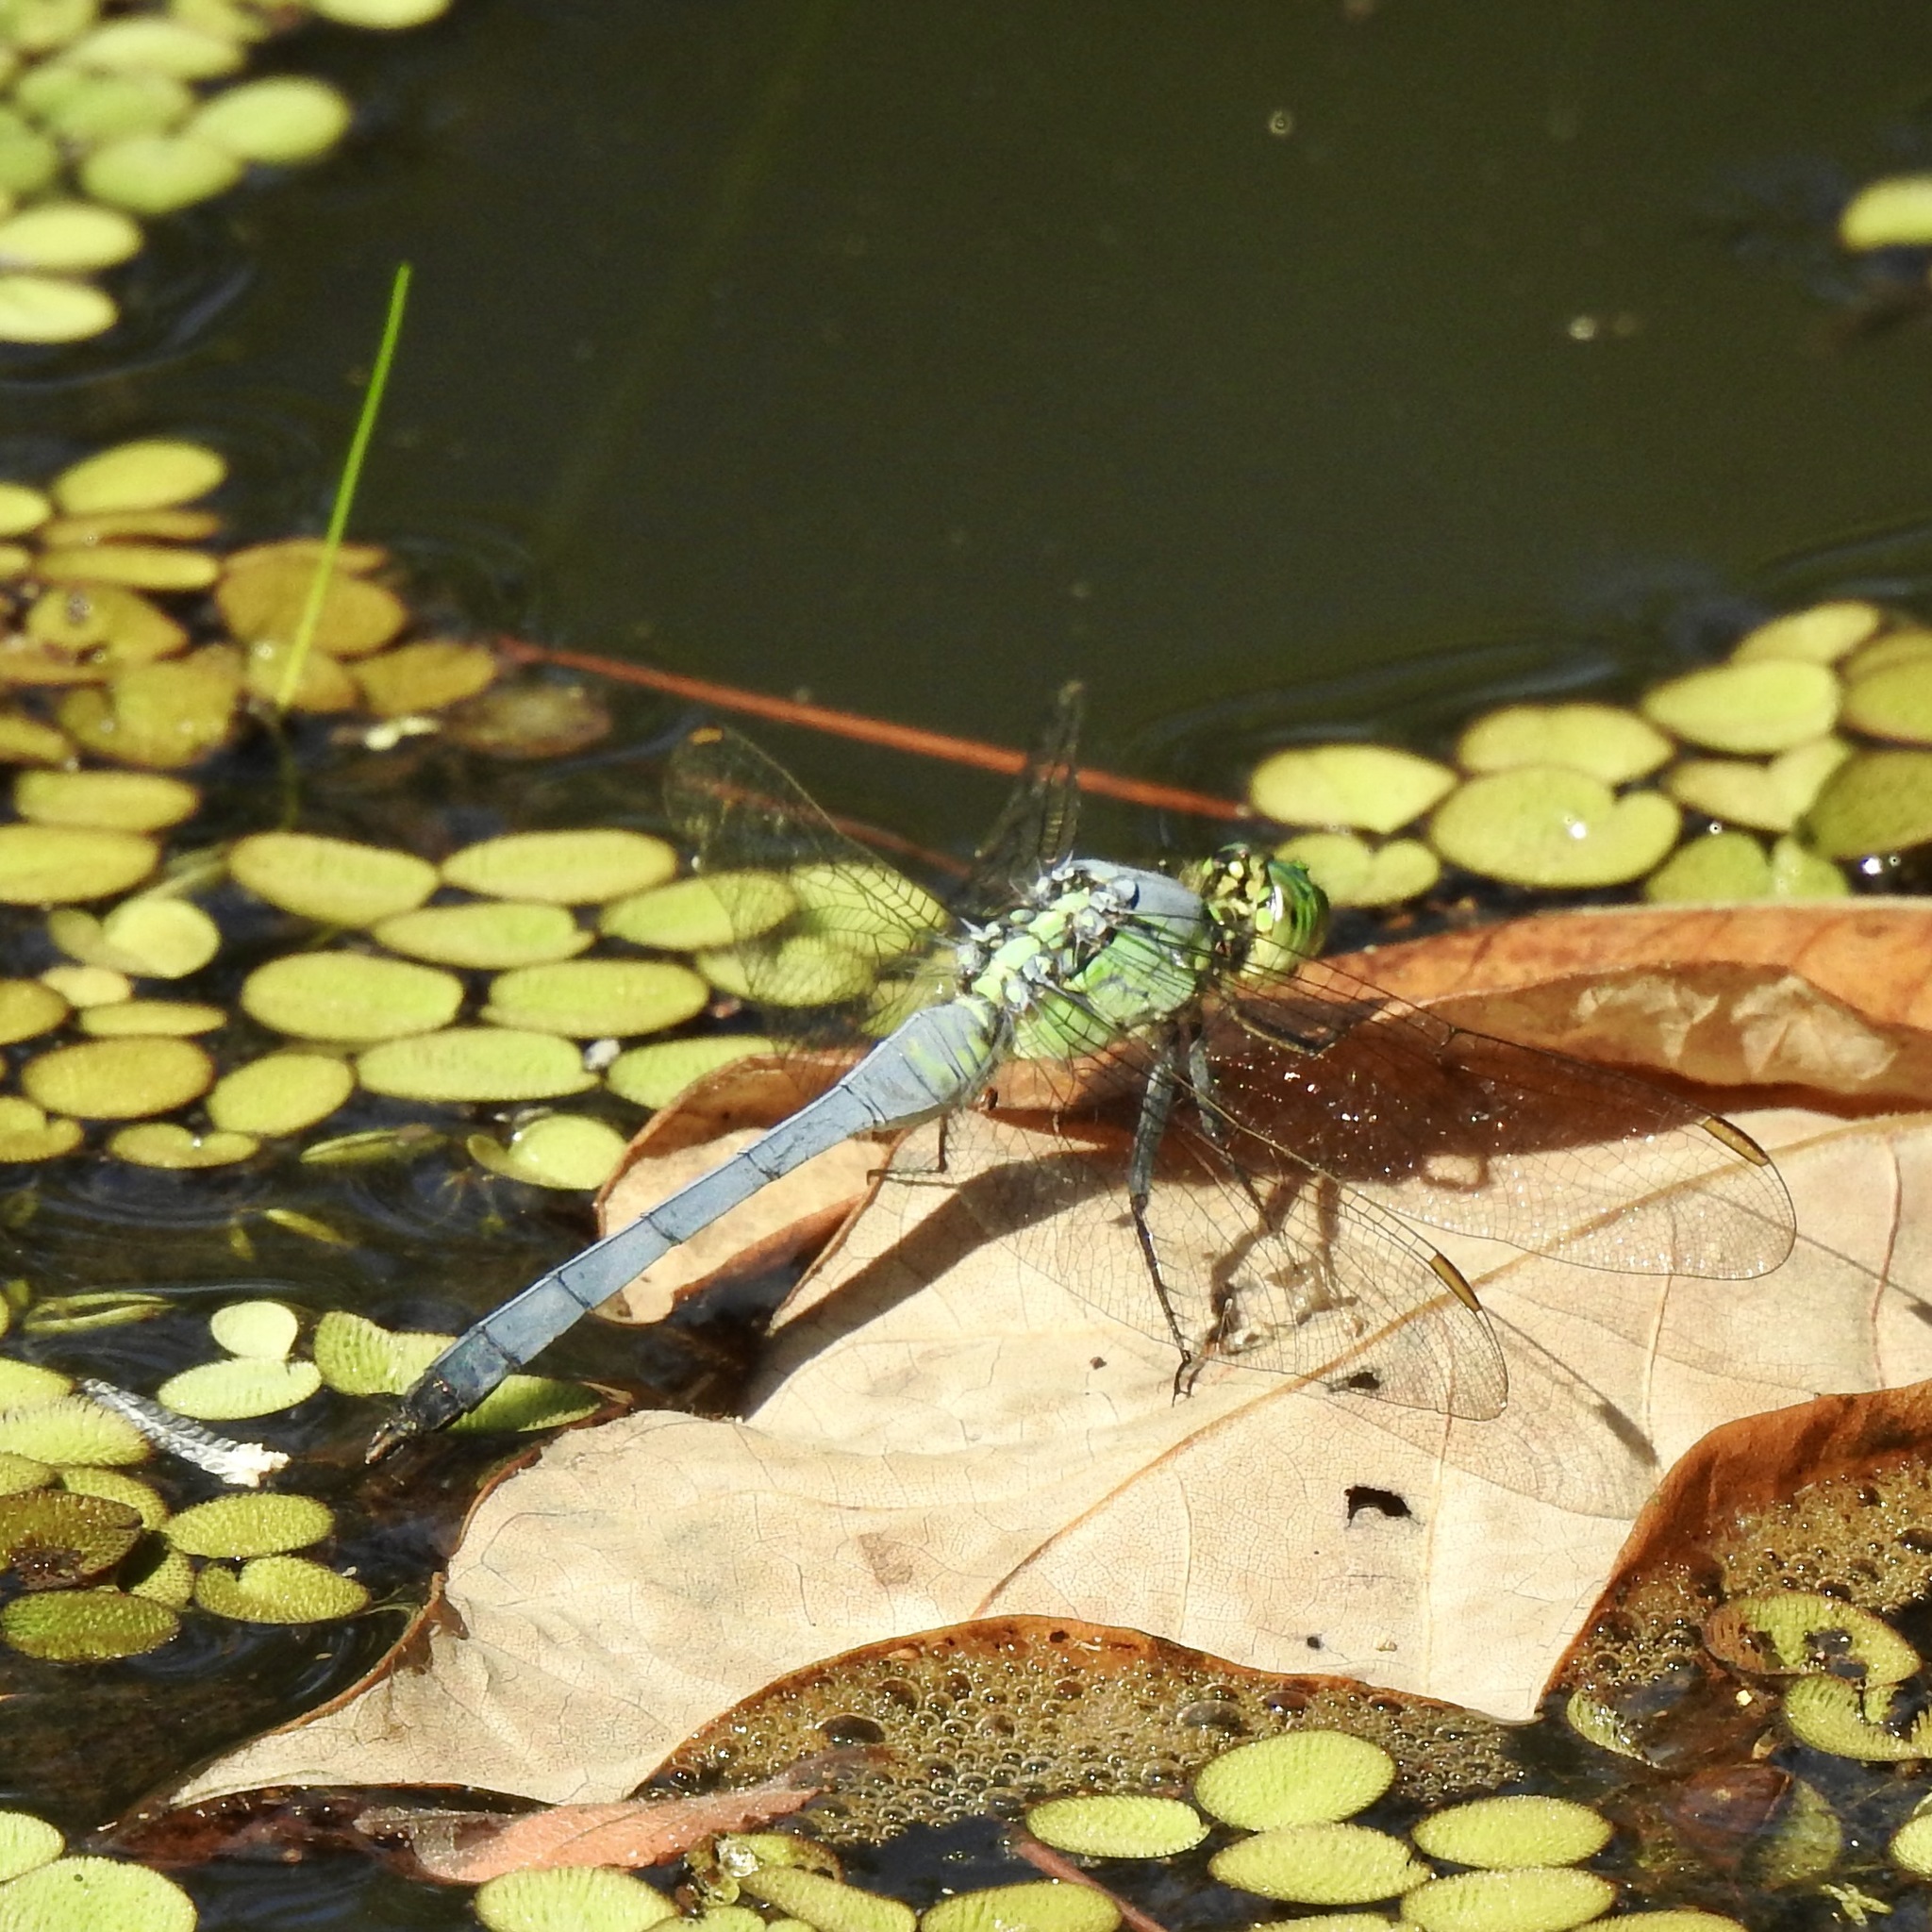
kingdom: Animalia
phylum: Arthropoda
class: Insecta
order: Odonata
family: Libellulidae
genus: Erythemis
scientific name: Erythemis simplicicollis
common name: Eastern pondhawk
